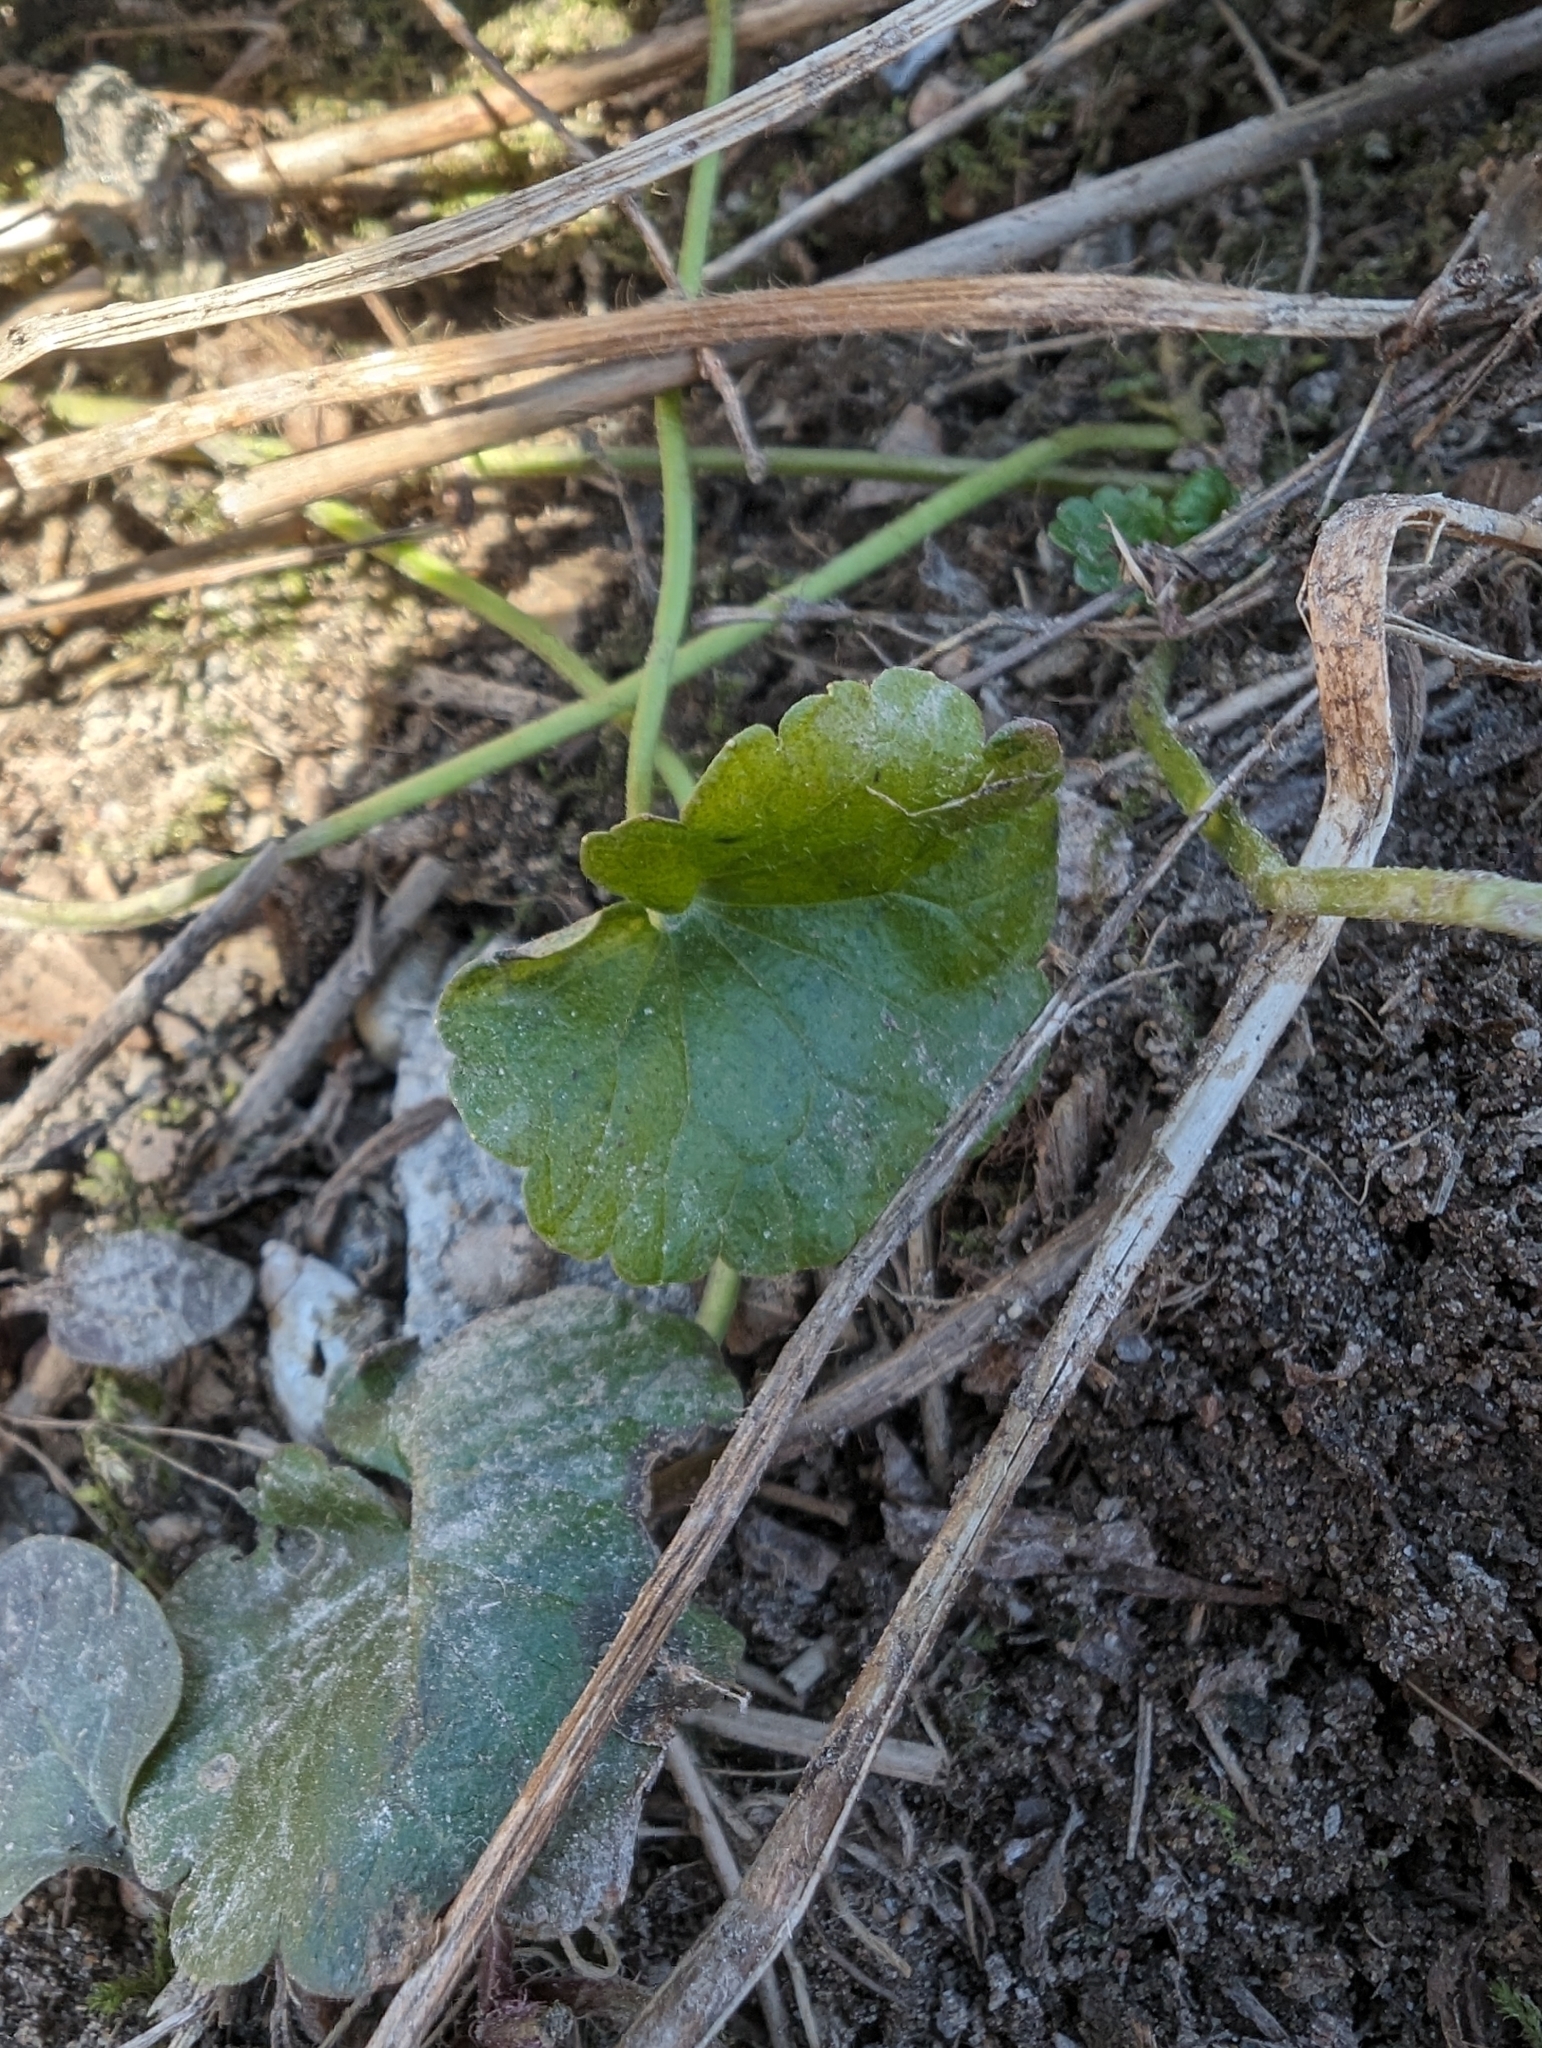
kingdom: Plantae
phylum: Tracheophyta
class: Magnoliopsida
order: Lamiales
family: Lamiaceae
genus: Glechoma
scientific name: Glechoma hederacea
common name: Ground ivy
